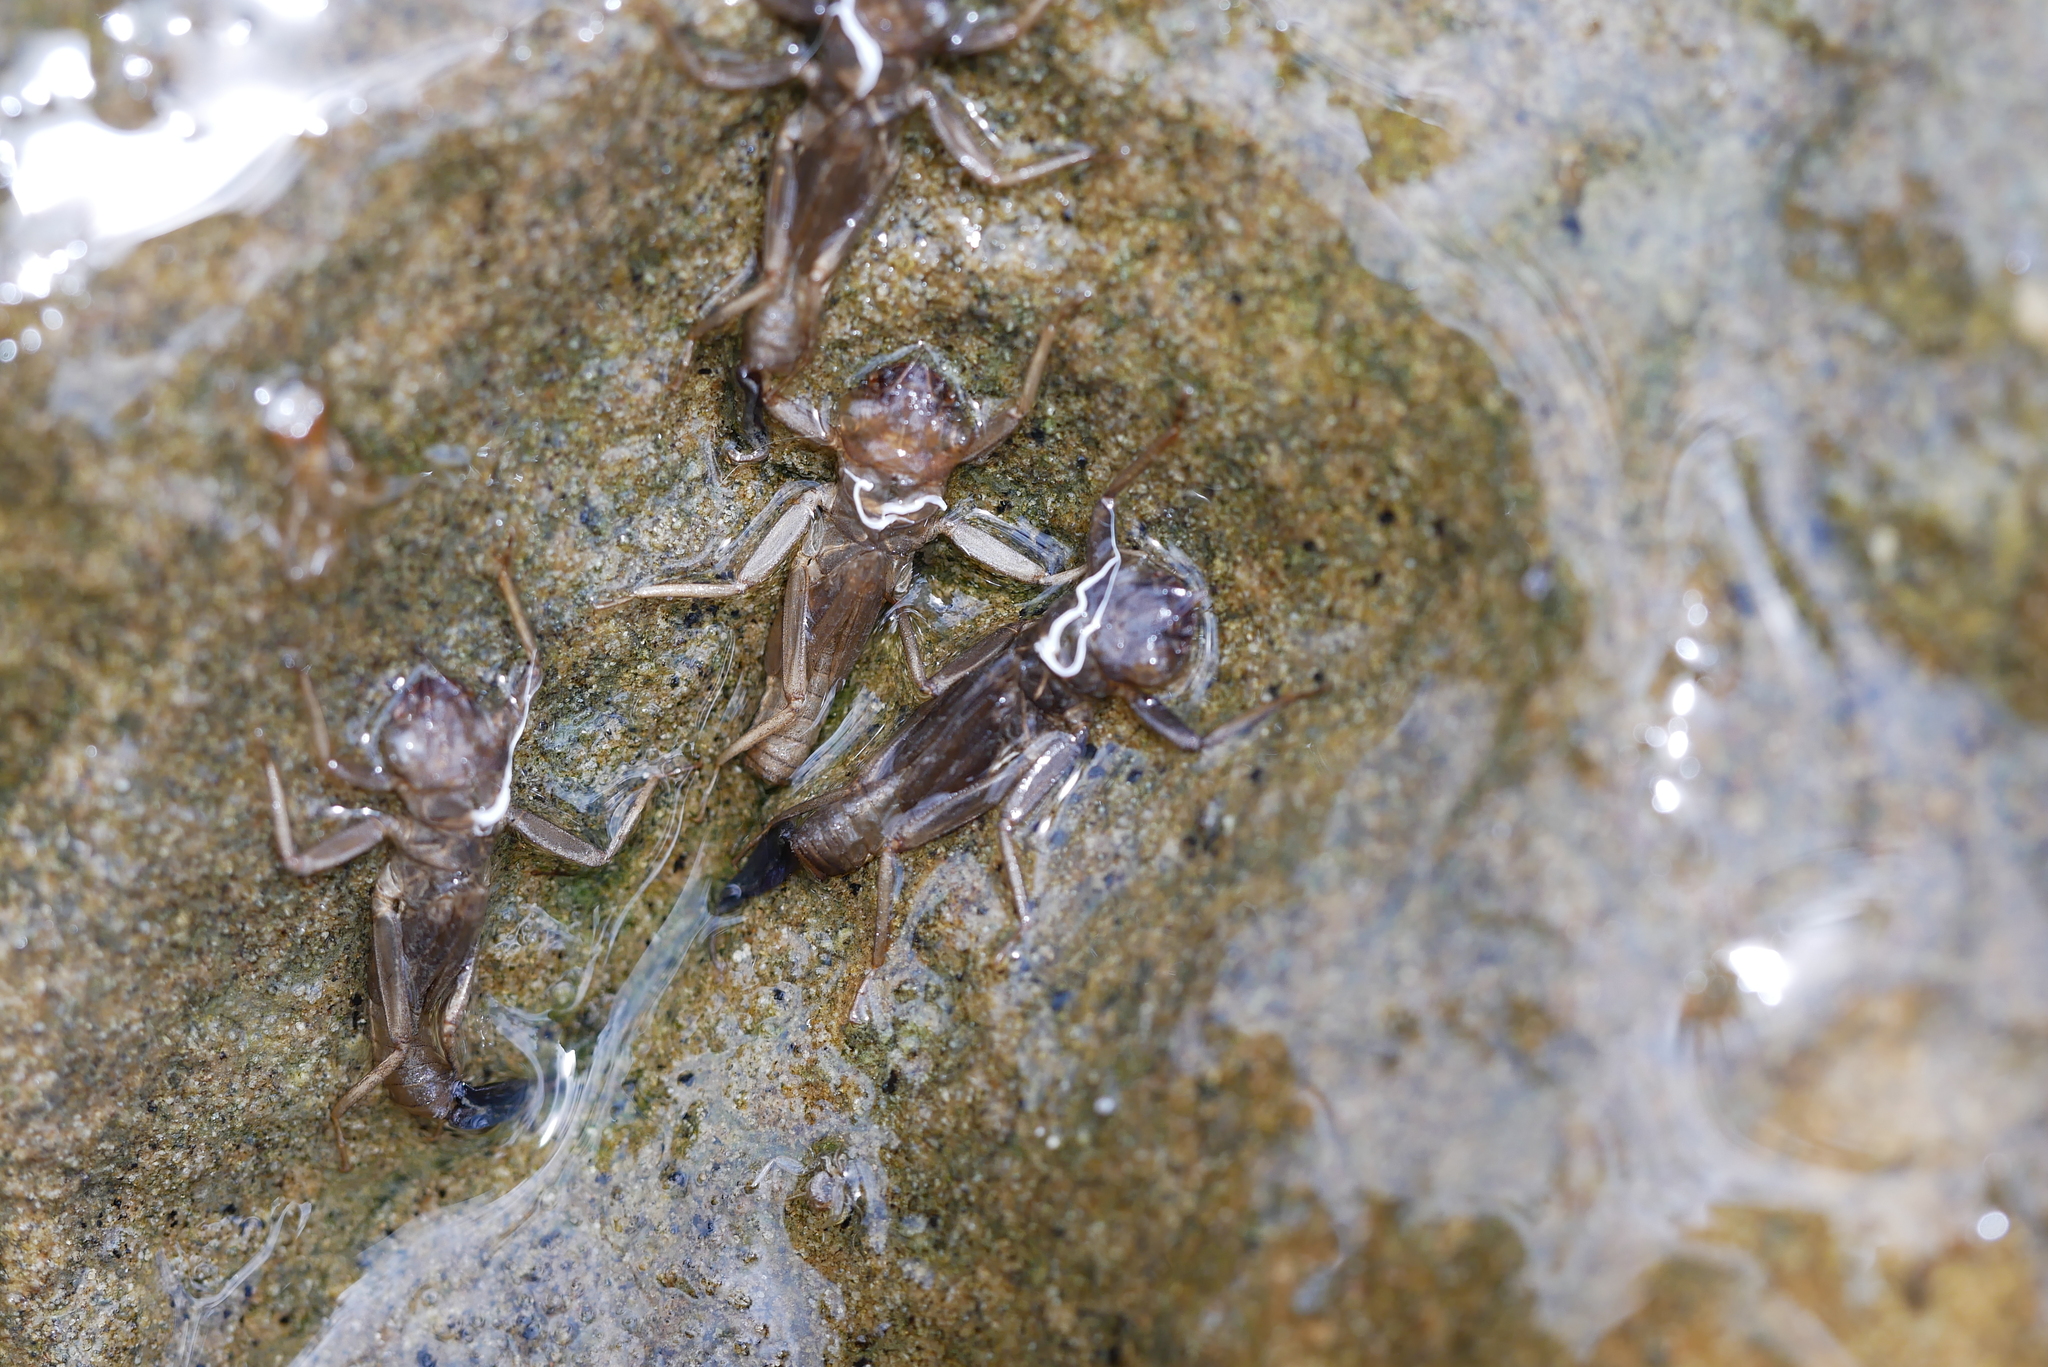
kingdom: Animalia
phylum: Arthropoda
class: Insecta
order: Odonata
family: Euphaeidae
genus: Euphaea
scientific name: Euphaea formosa
